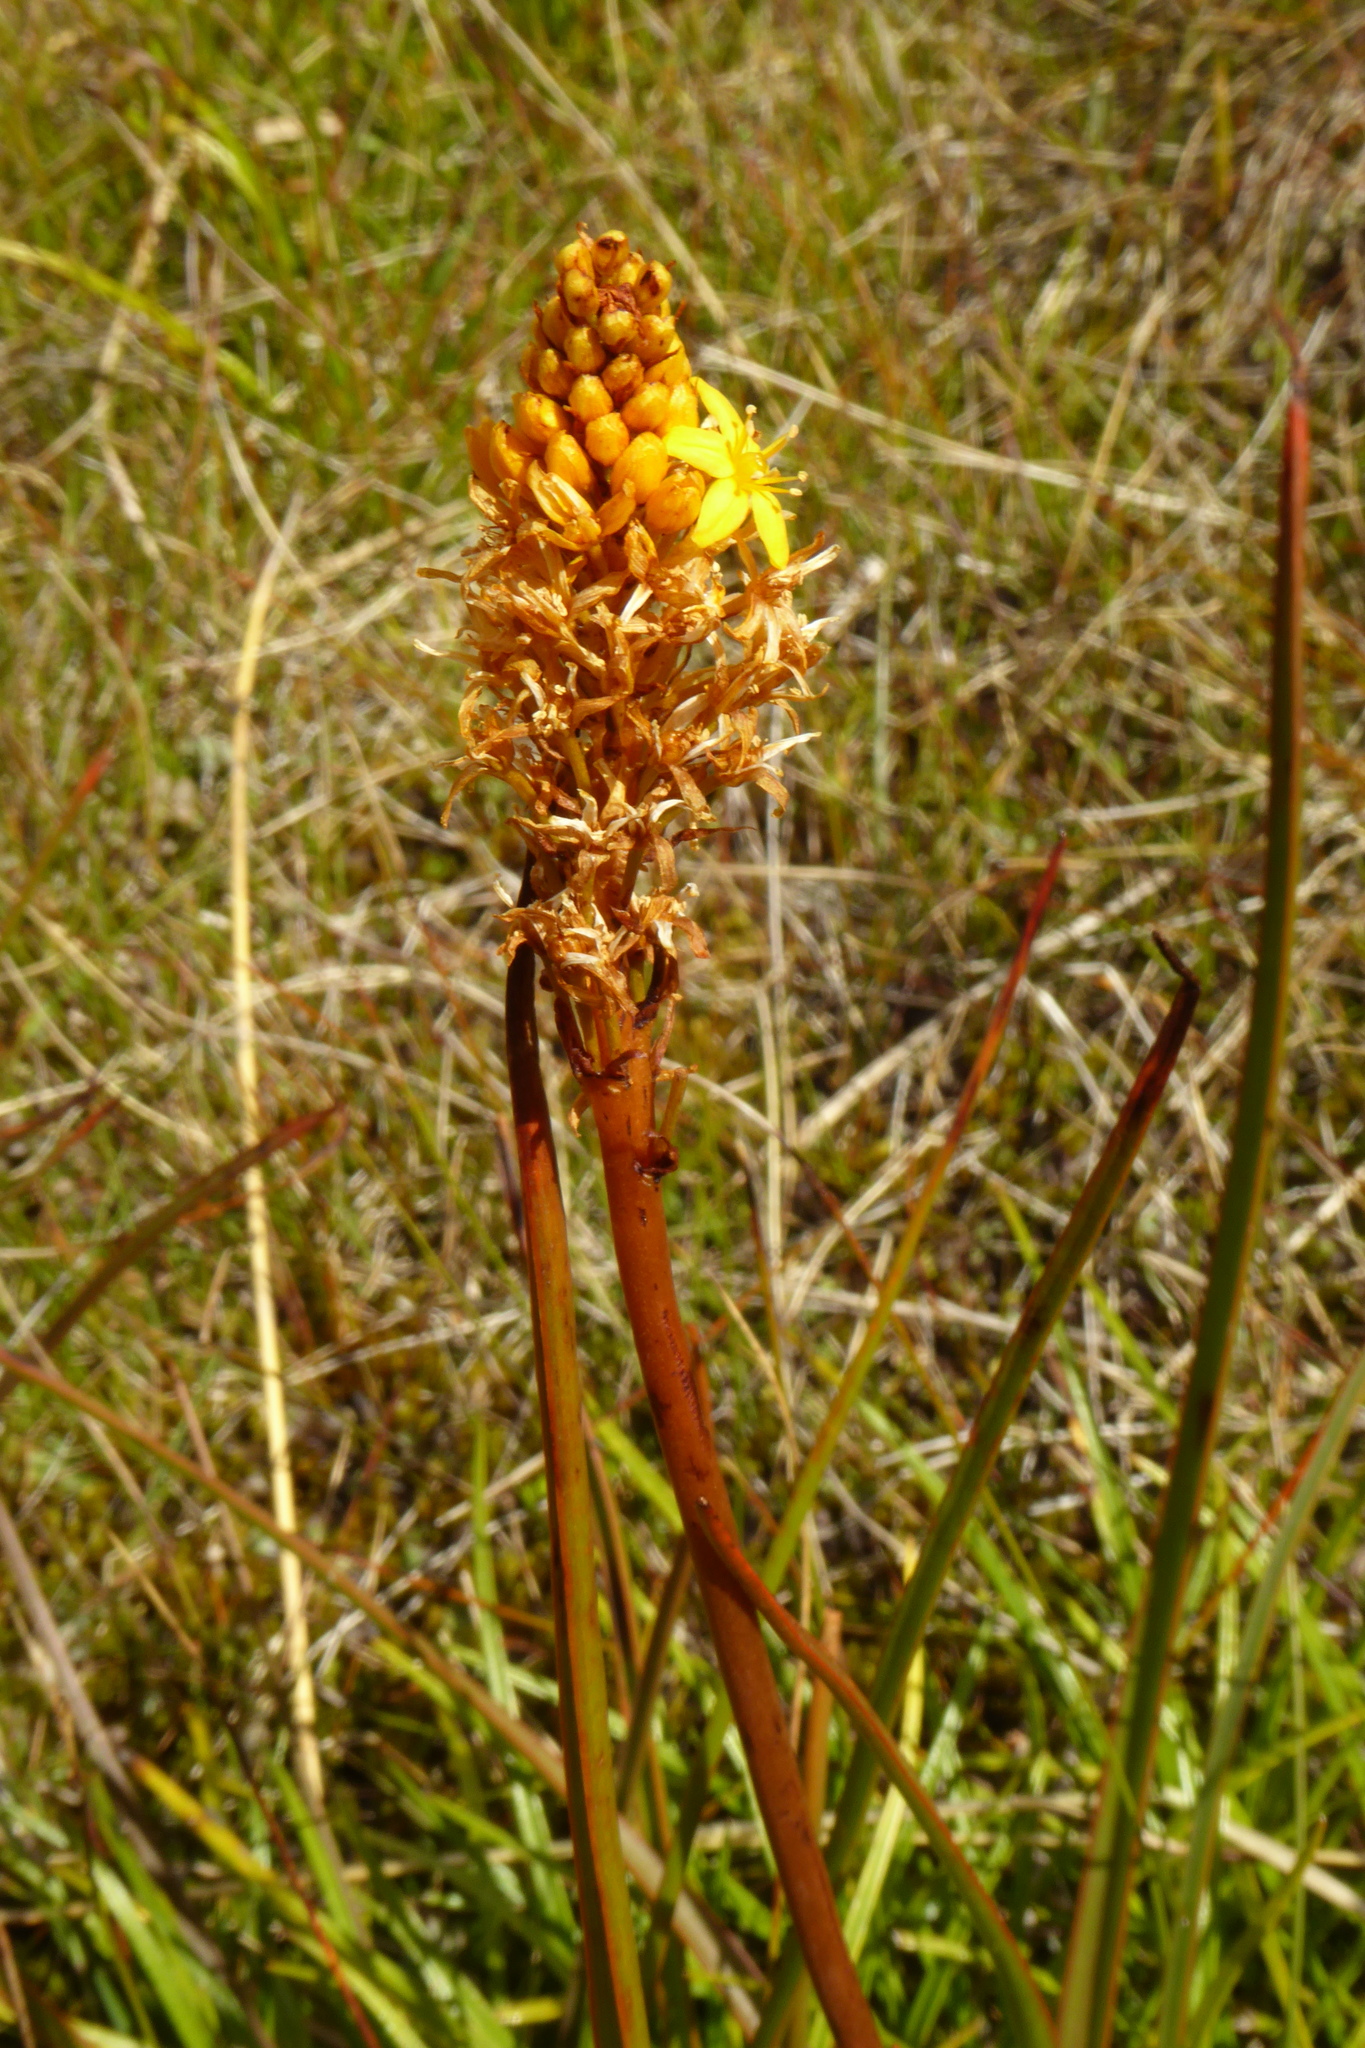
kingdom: Plantae
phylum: Tracheophyta
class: Liliopsida
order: Asparagales
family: Asphodelaceae
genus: Bulbinella
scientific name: Bulbinella angustifolia
